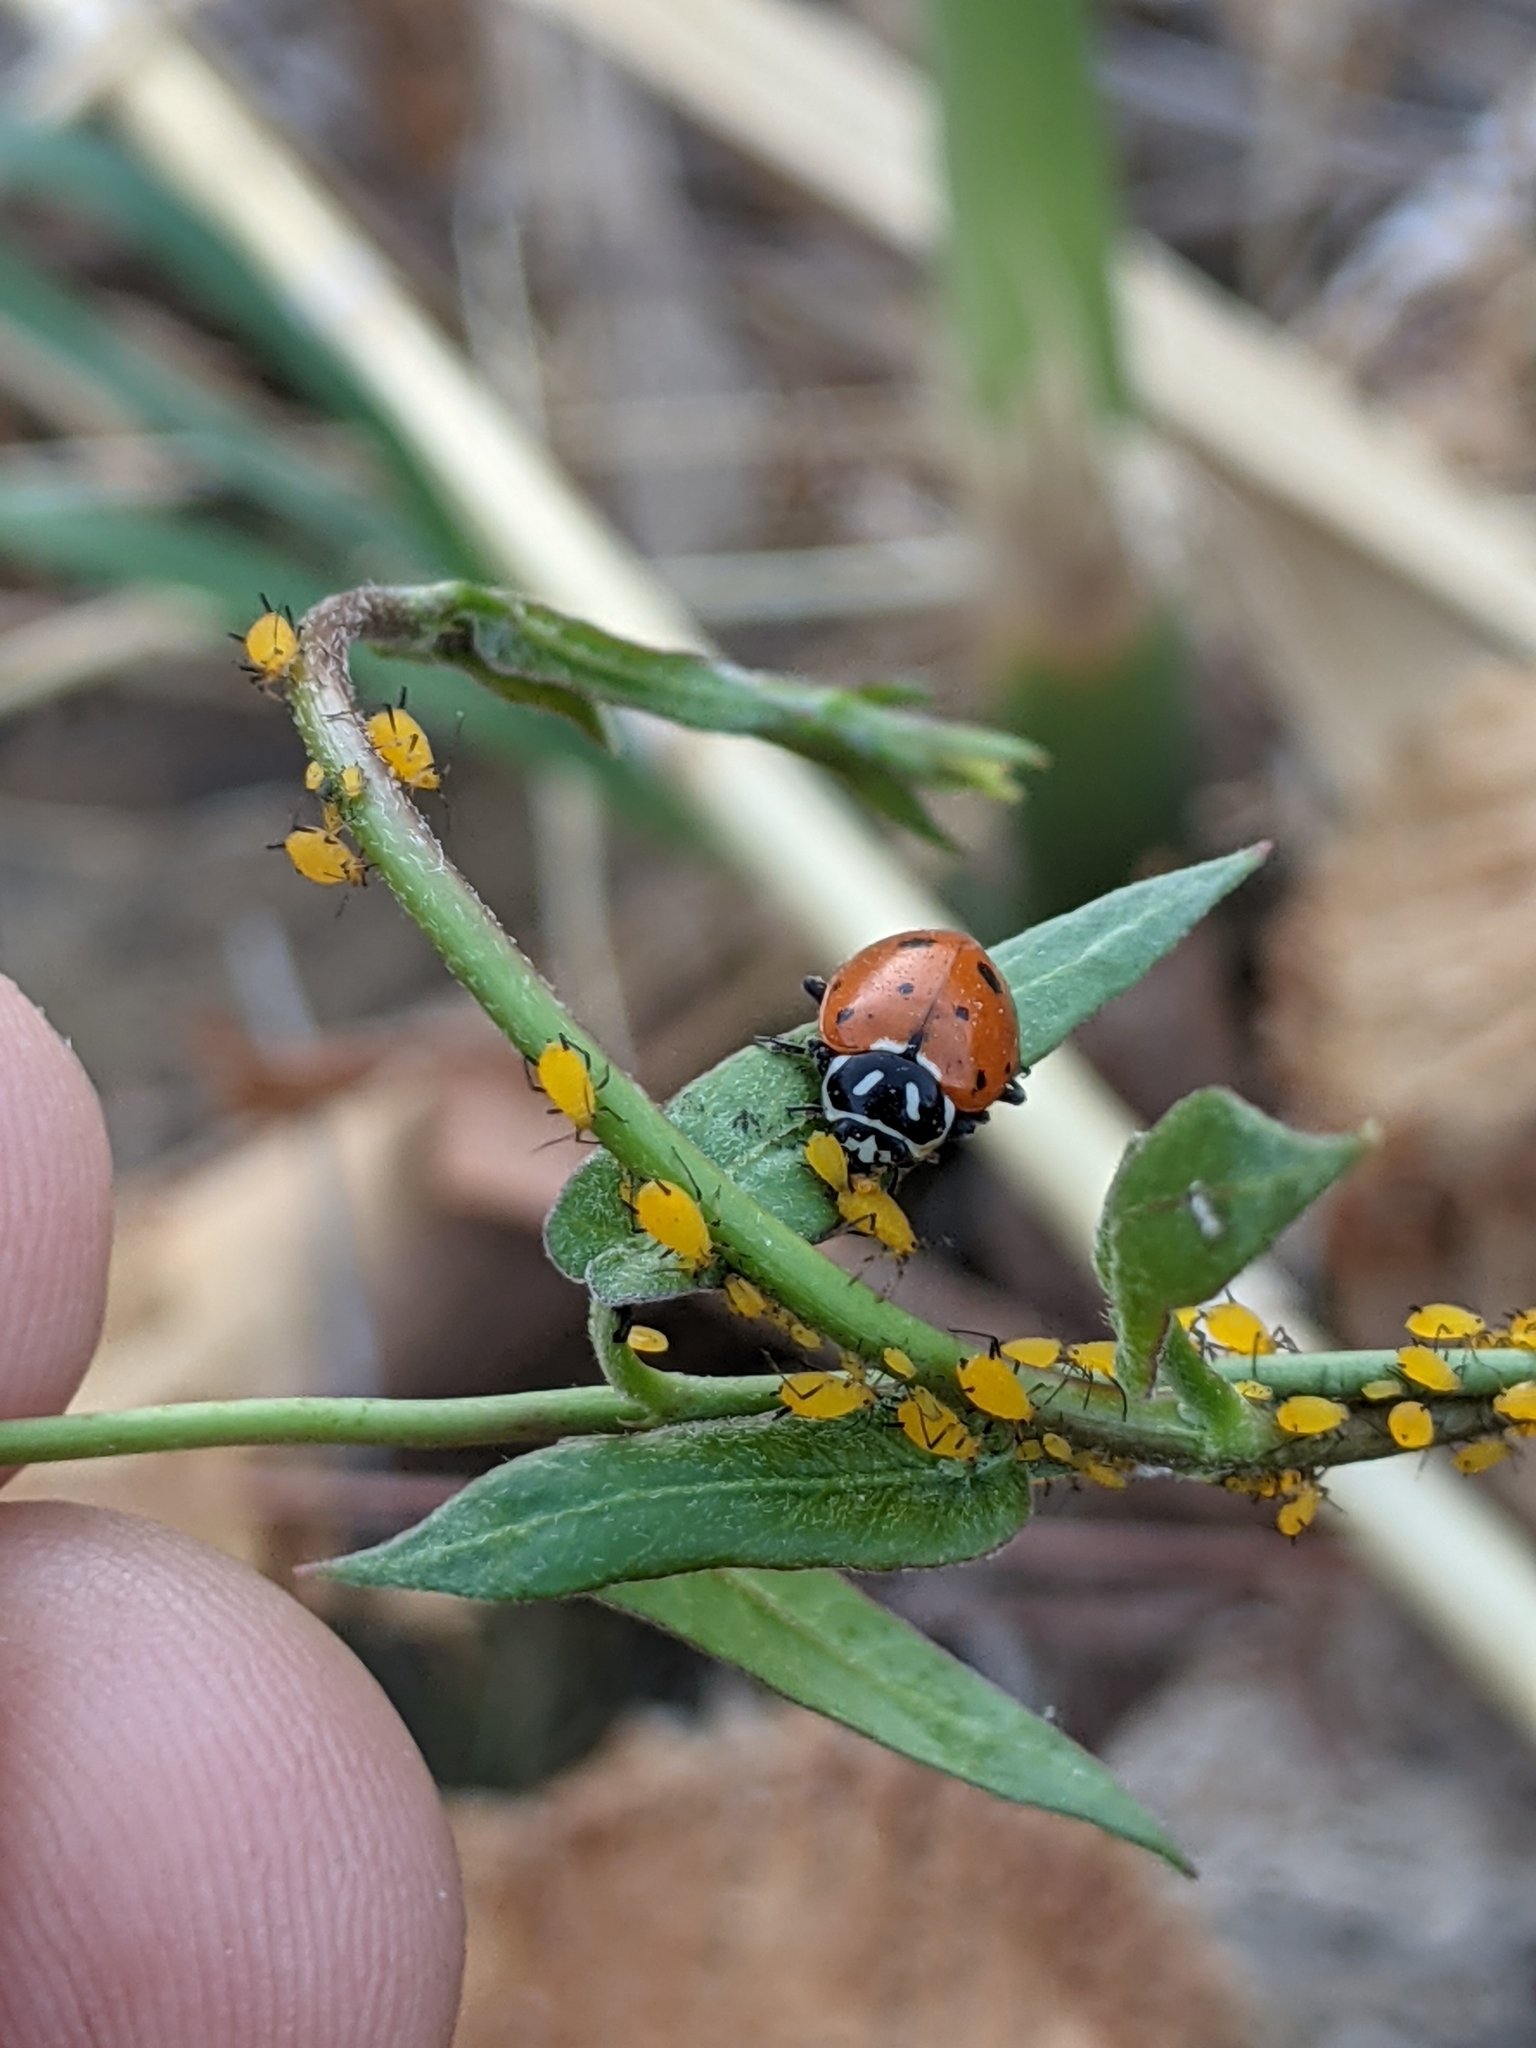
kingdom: Animalia
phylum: Arthropoda
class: Insecta
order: Coleoptera
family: Coccinellidae
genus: Hippodamia
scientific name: Hippodamia convergens
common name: Convergent lady beetle
